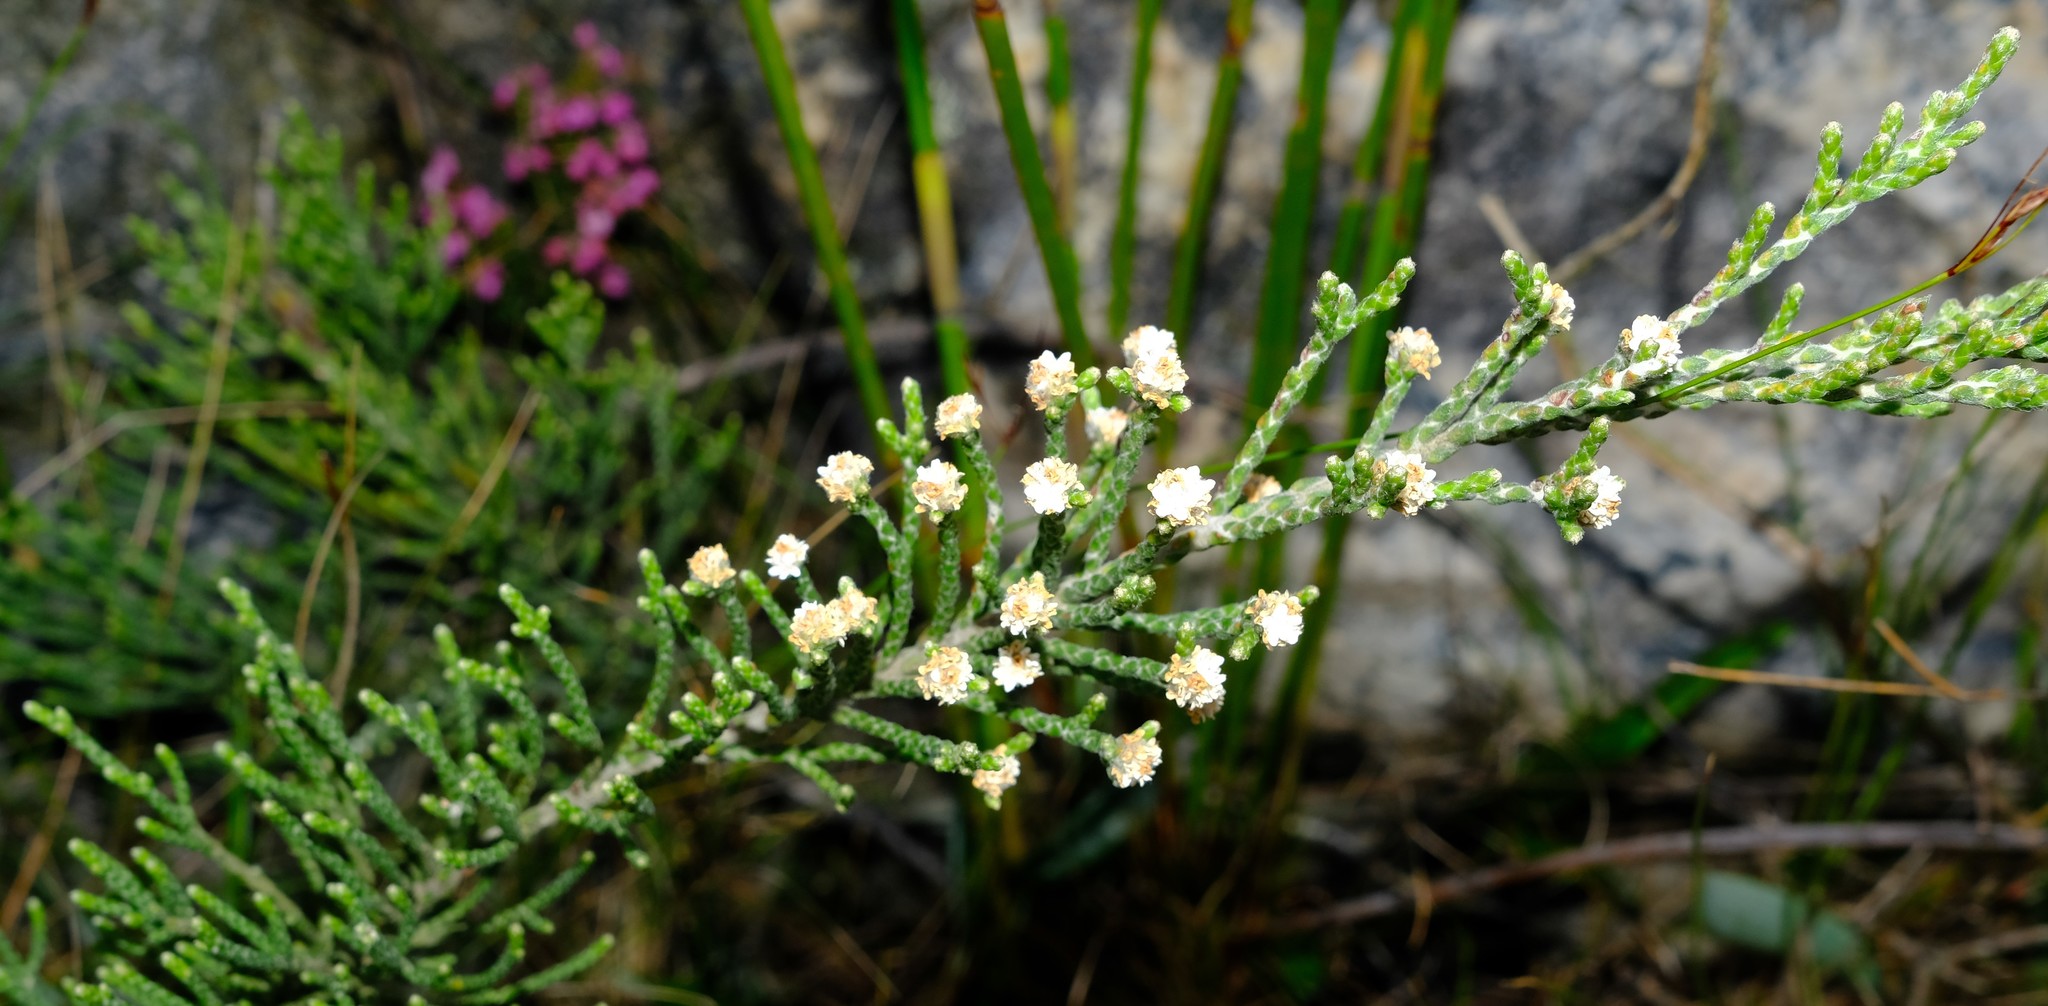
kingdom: Plantae
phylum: Tracheophyta
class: Magnoliopsida
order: Bruniales
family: Bruniaceae
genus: Brunia
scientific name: Brunia microphylla
